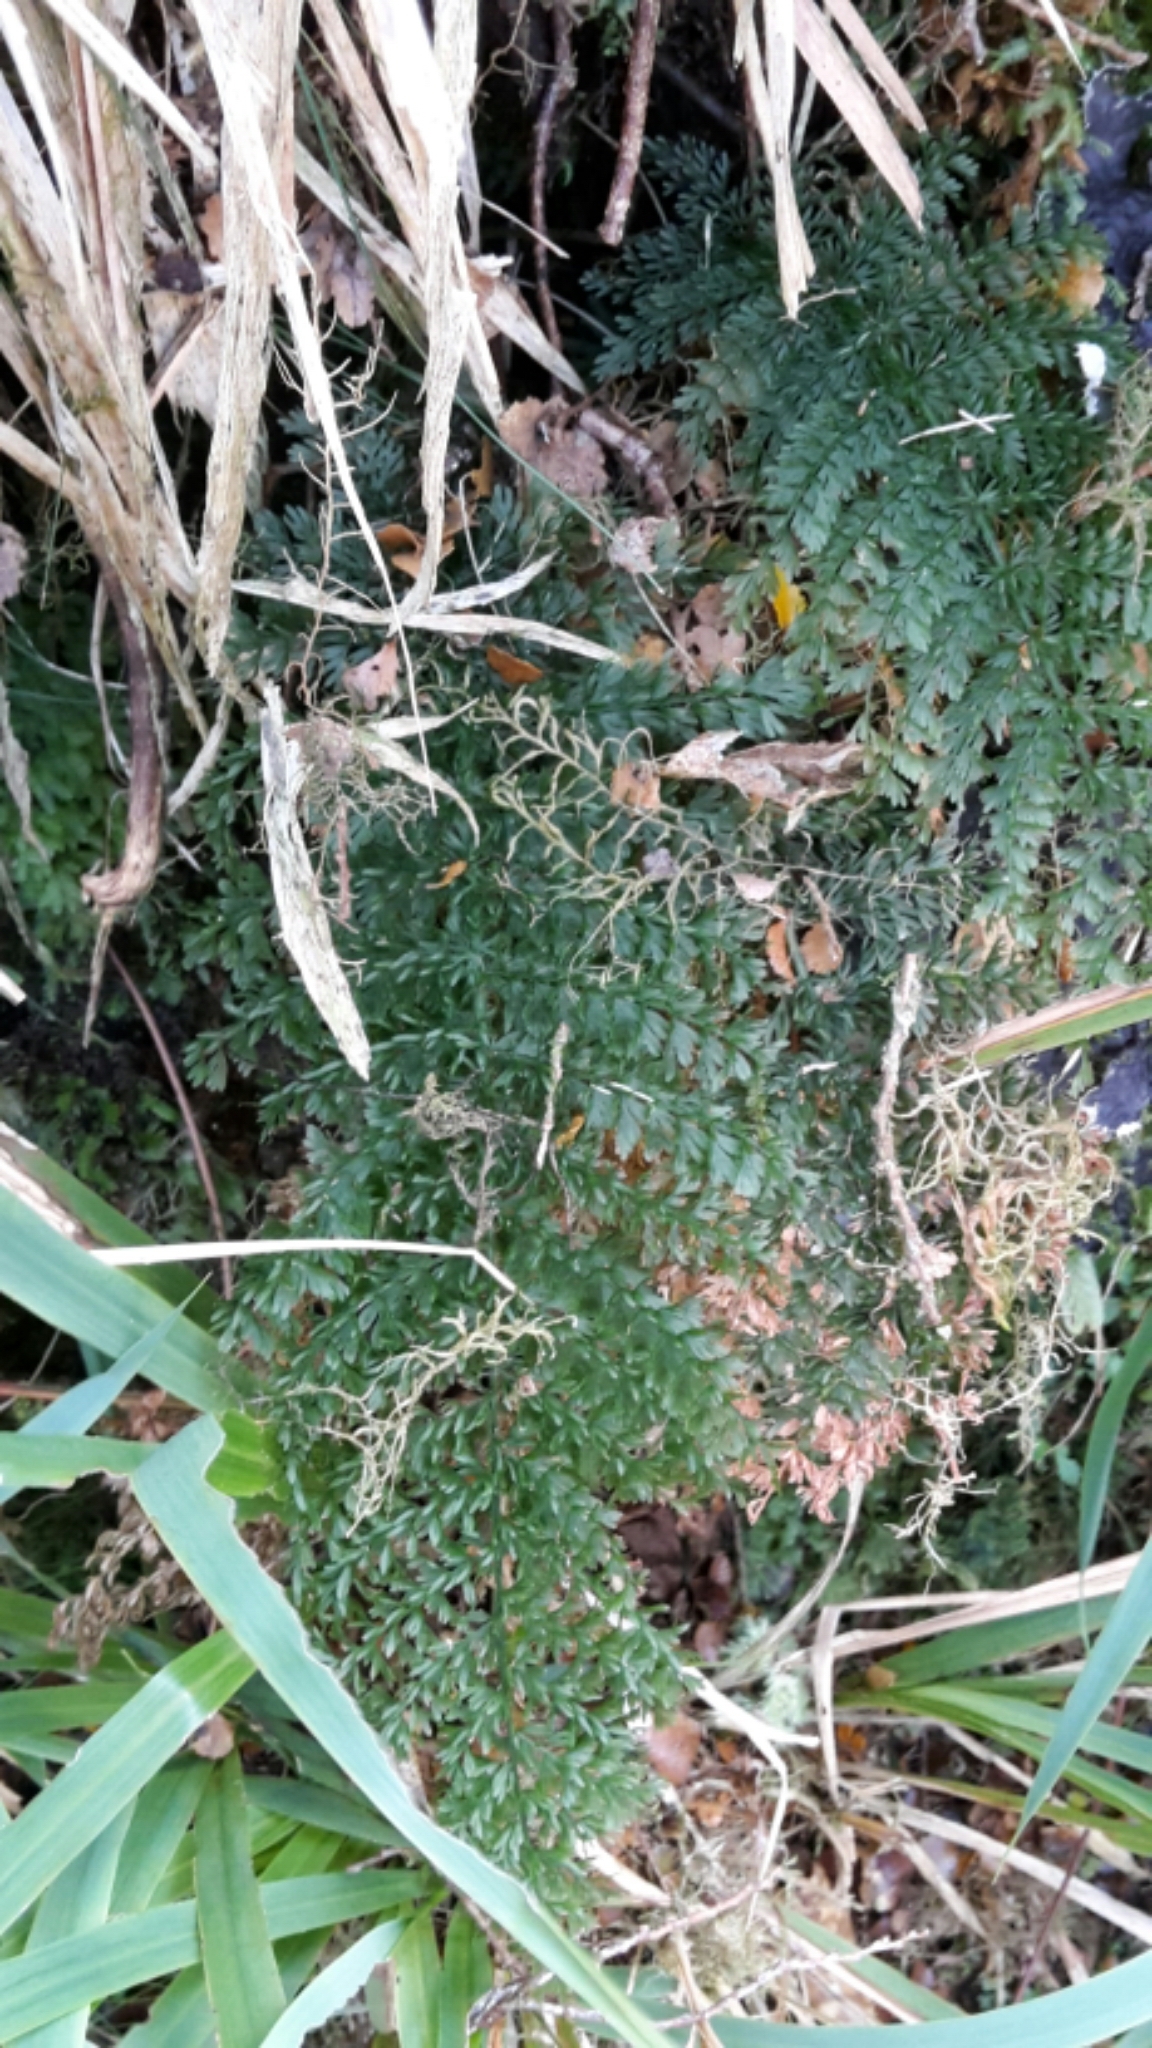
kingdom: Plantae
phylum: Tracheophyta
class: Polypodiopsida
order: Osmundales
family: Osmundaceae
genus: Leptopteris
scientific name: Leptopteris superba
